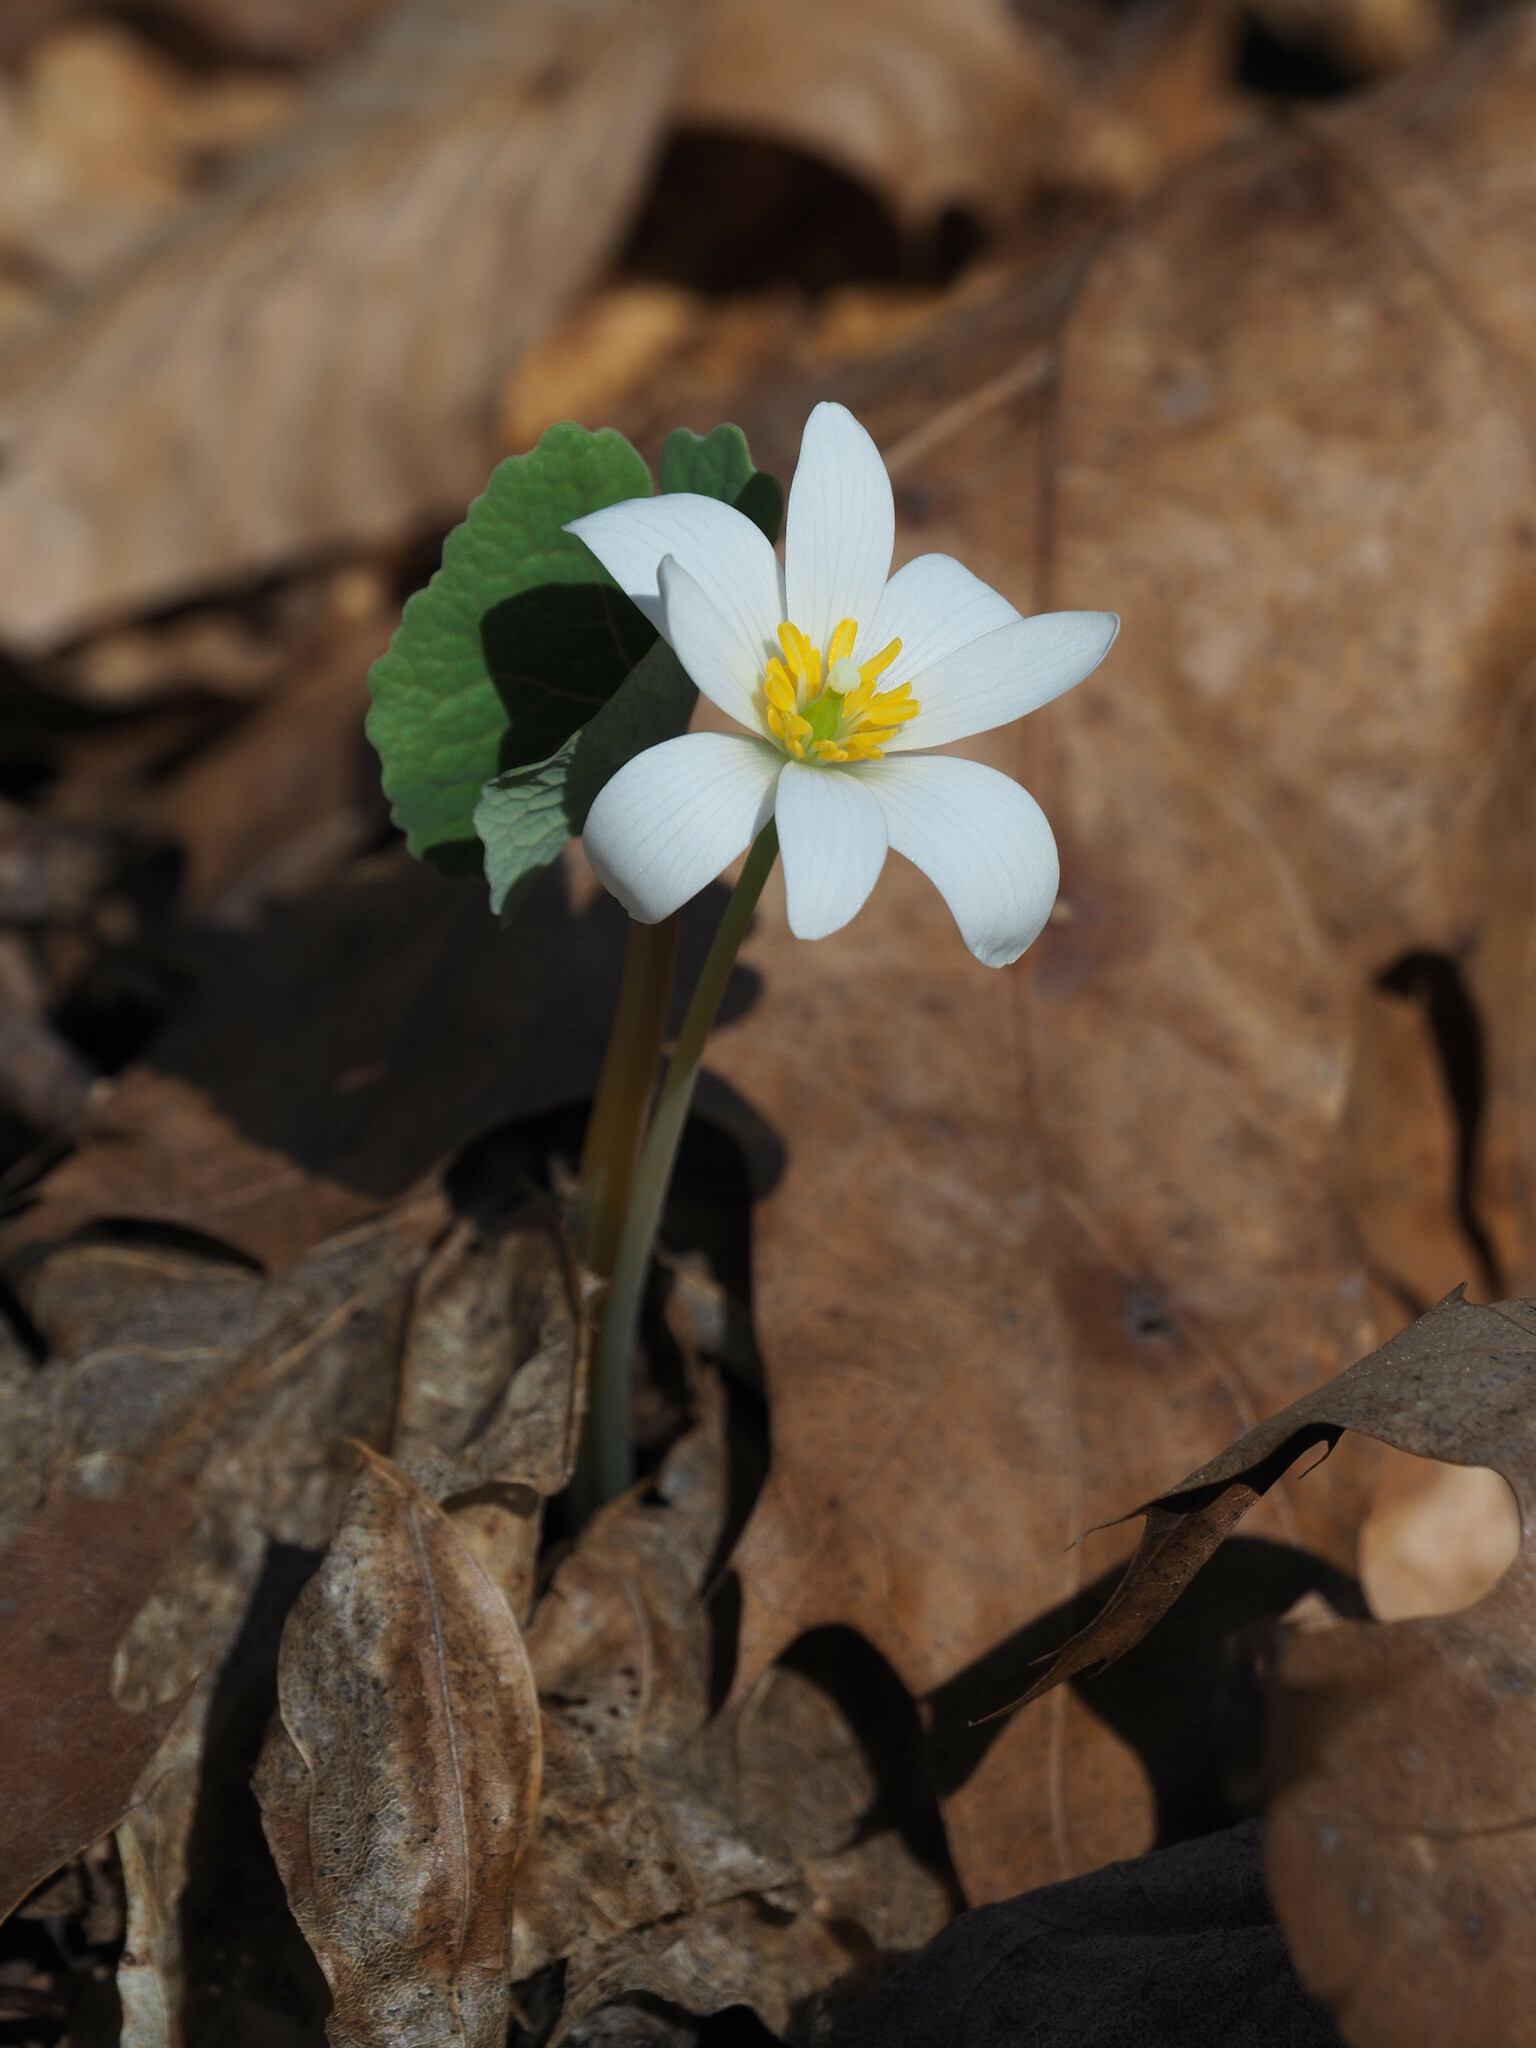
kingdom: Plantae
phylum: Tracheophyta
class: Magnoliopsida
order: Ranunculales
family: Papaveraceae
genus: Sanguinaria
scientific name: Sanguinaria canadensis
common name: Bloodroot
